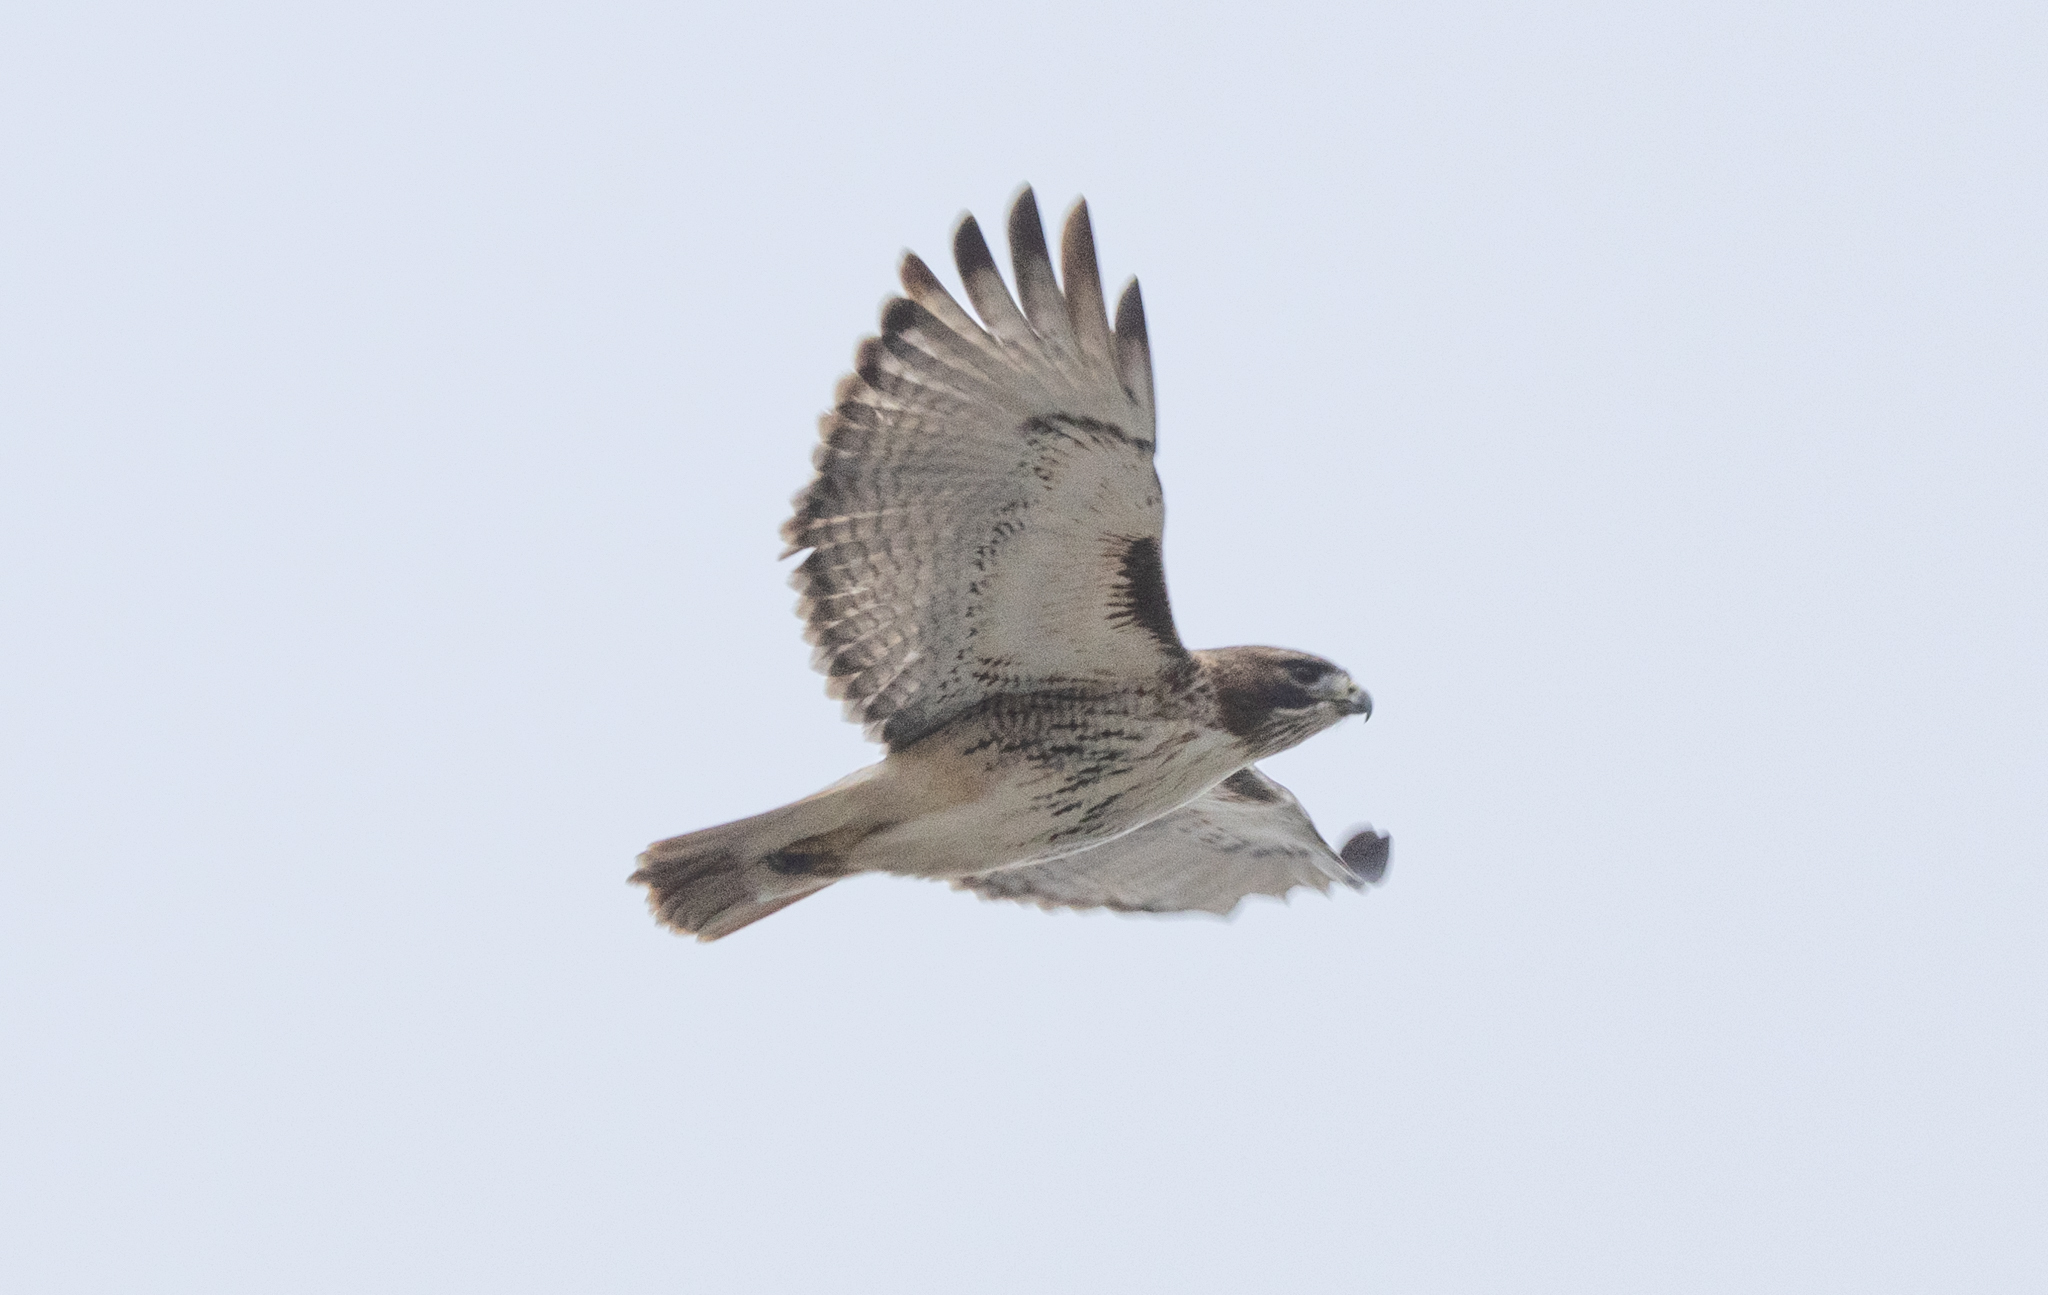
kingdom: Animalia
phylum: Chordata
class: Aves
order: Accipitriformes
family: Accipitridae
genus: Buteo
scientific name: Buteo jamaicensis
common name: Red-tailed hawk
